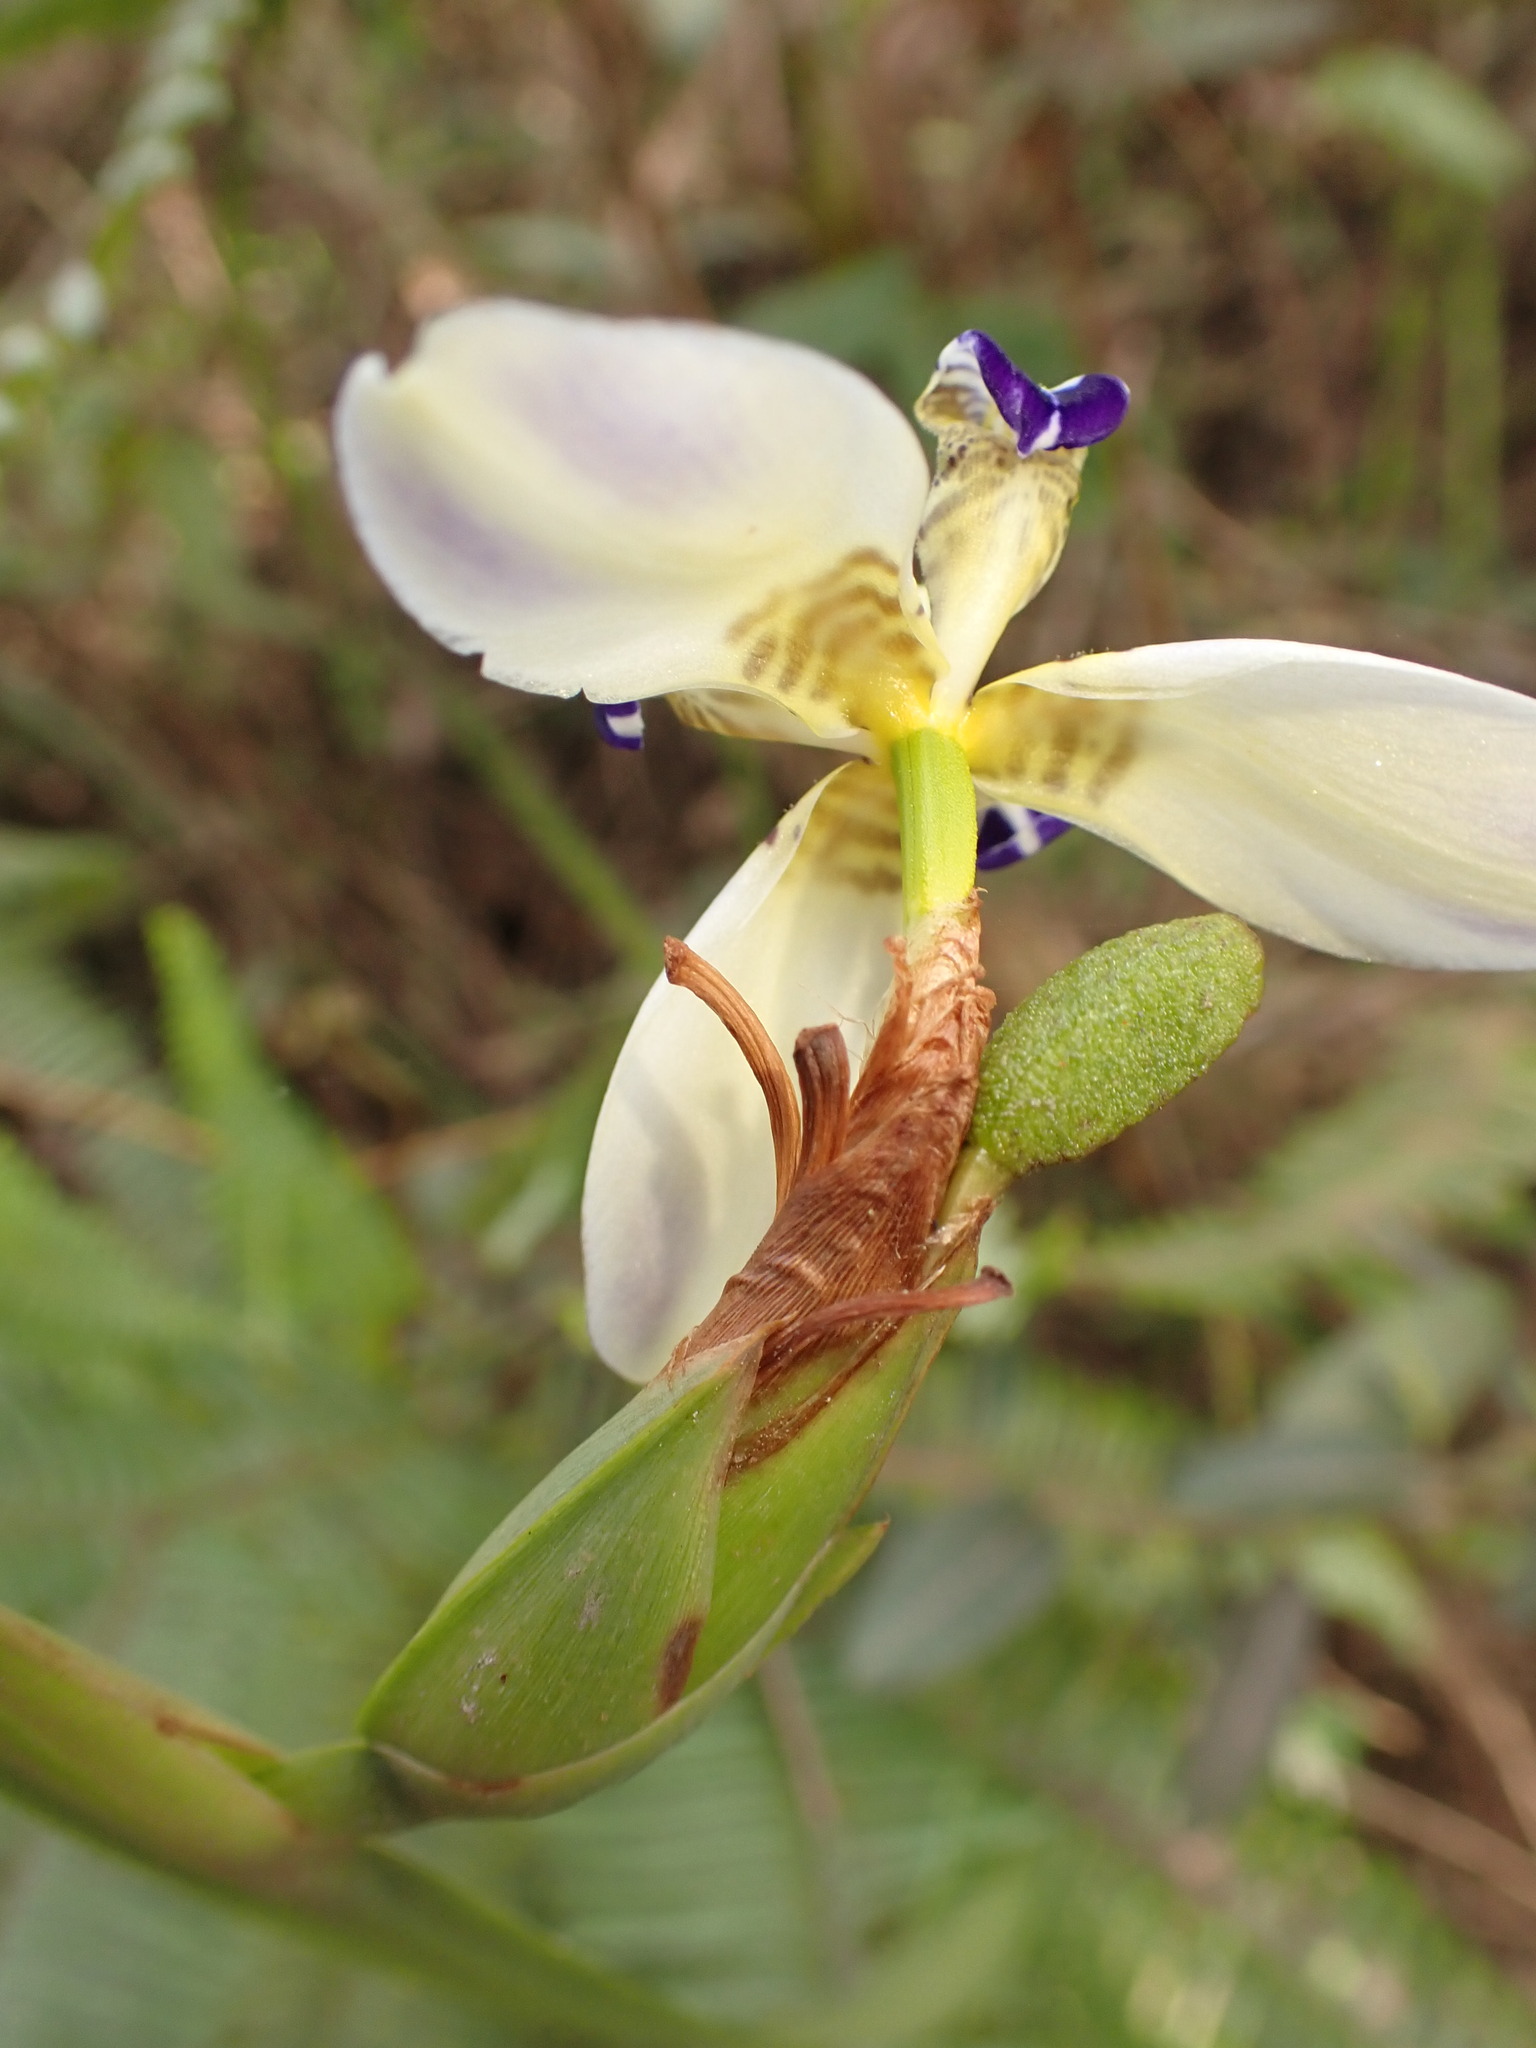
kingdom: Plantae
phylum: Tracheophyta
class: Liliopsida
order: Asparagales
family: Iridaceae
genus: Trimezia
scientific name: Trimezia glauca
